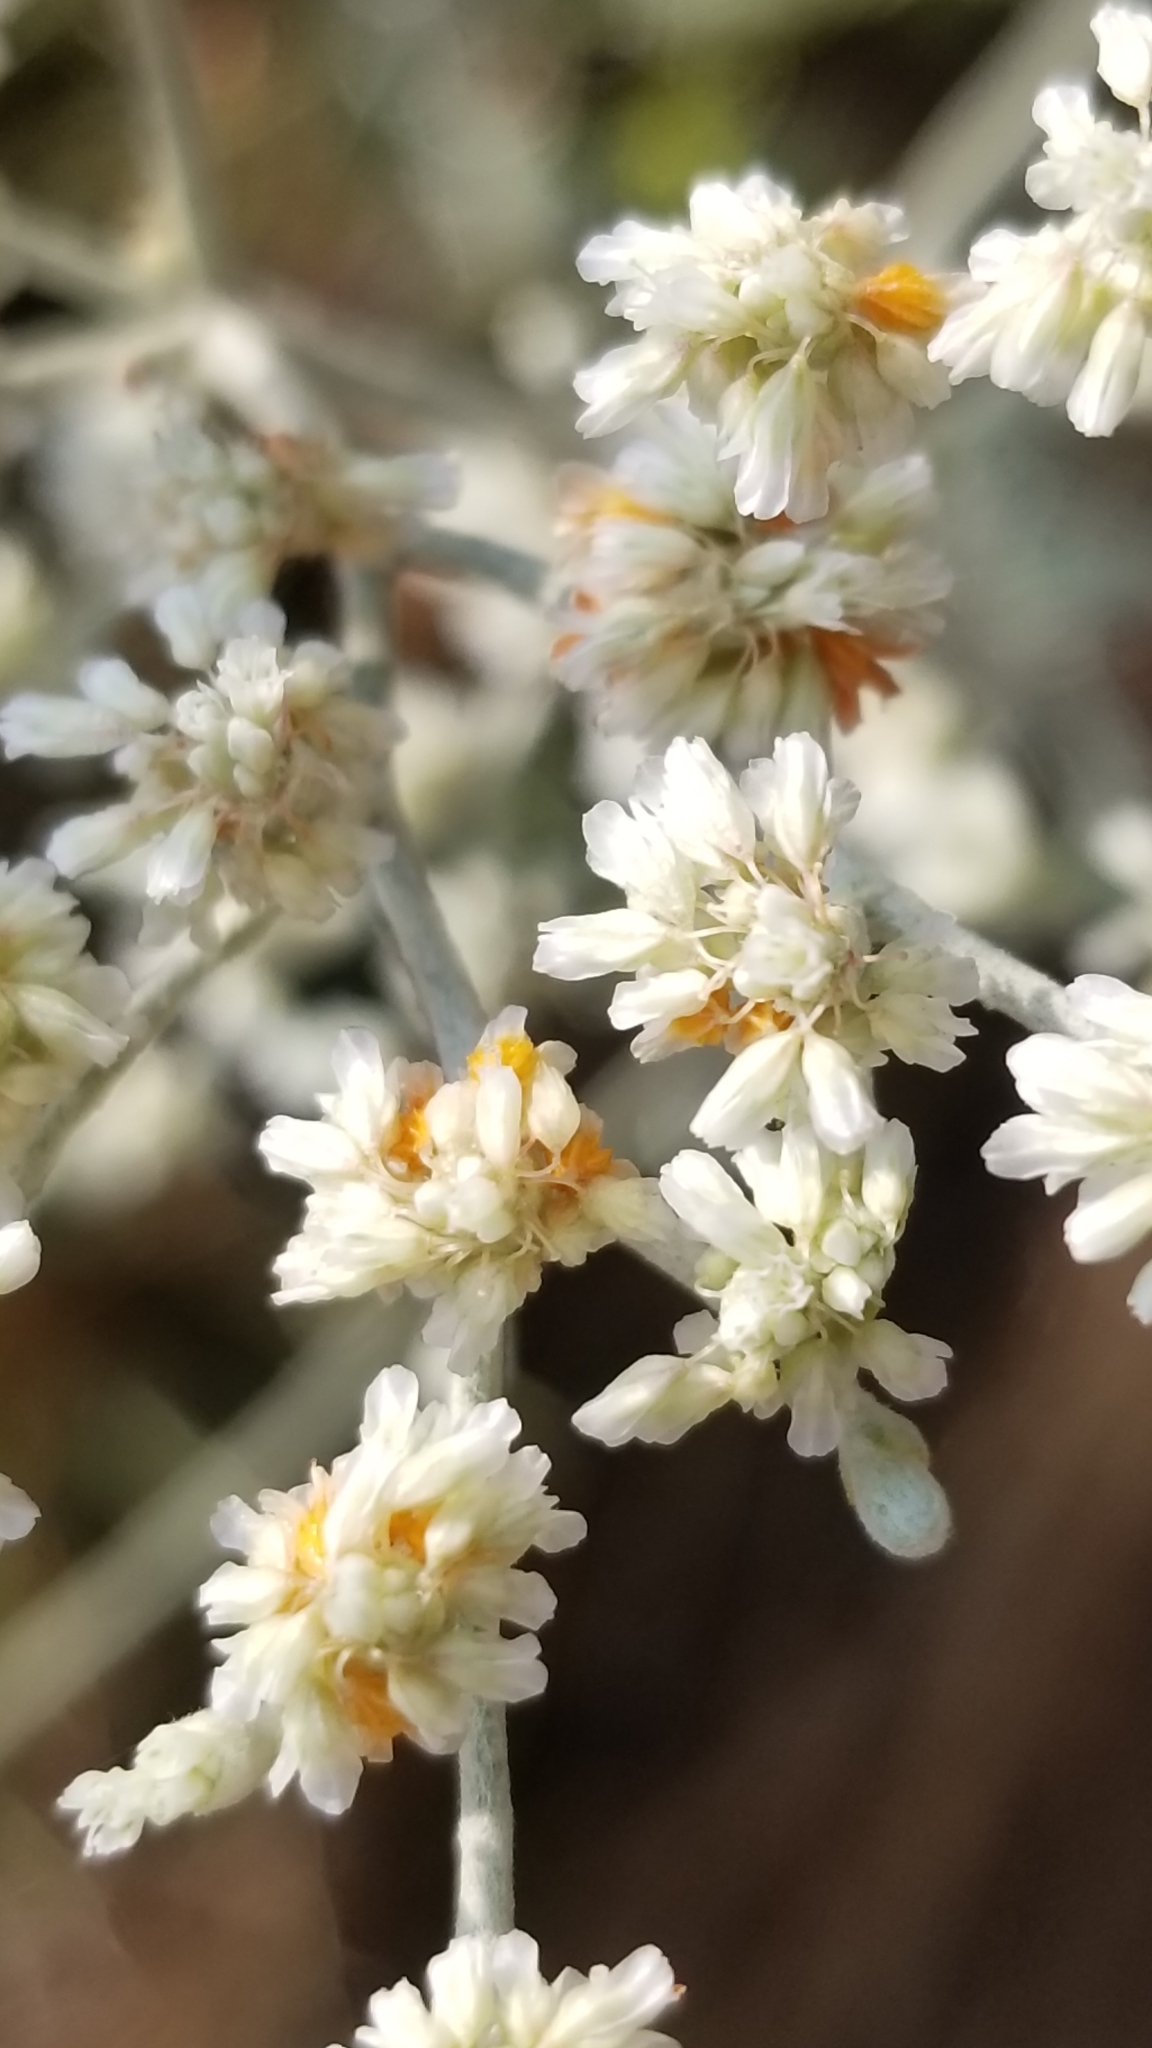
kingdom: Plantae
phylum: Tracheophyta
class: Magnoliopsida
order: Caryophyllales
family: Polygonaceae
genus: Eriogonum
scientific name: Eriogonum annuum
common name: Annual wild buckwheat
